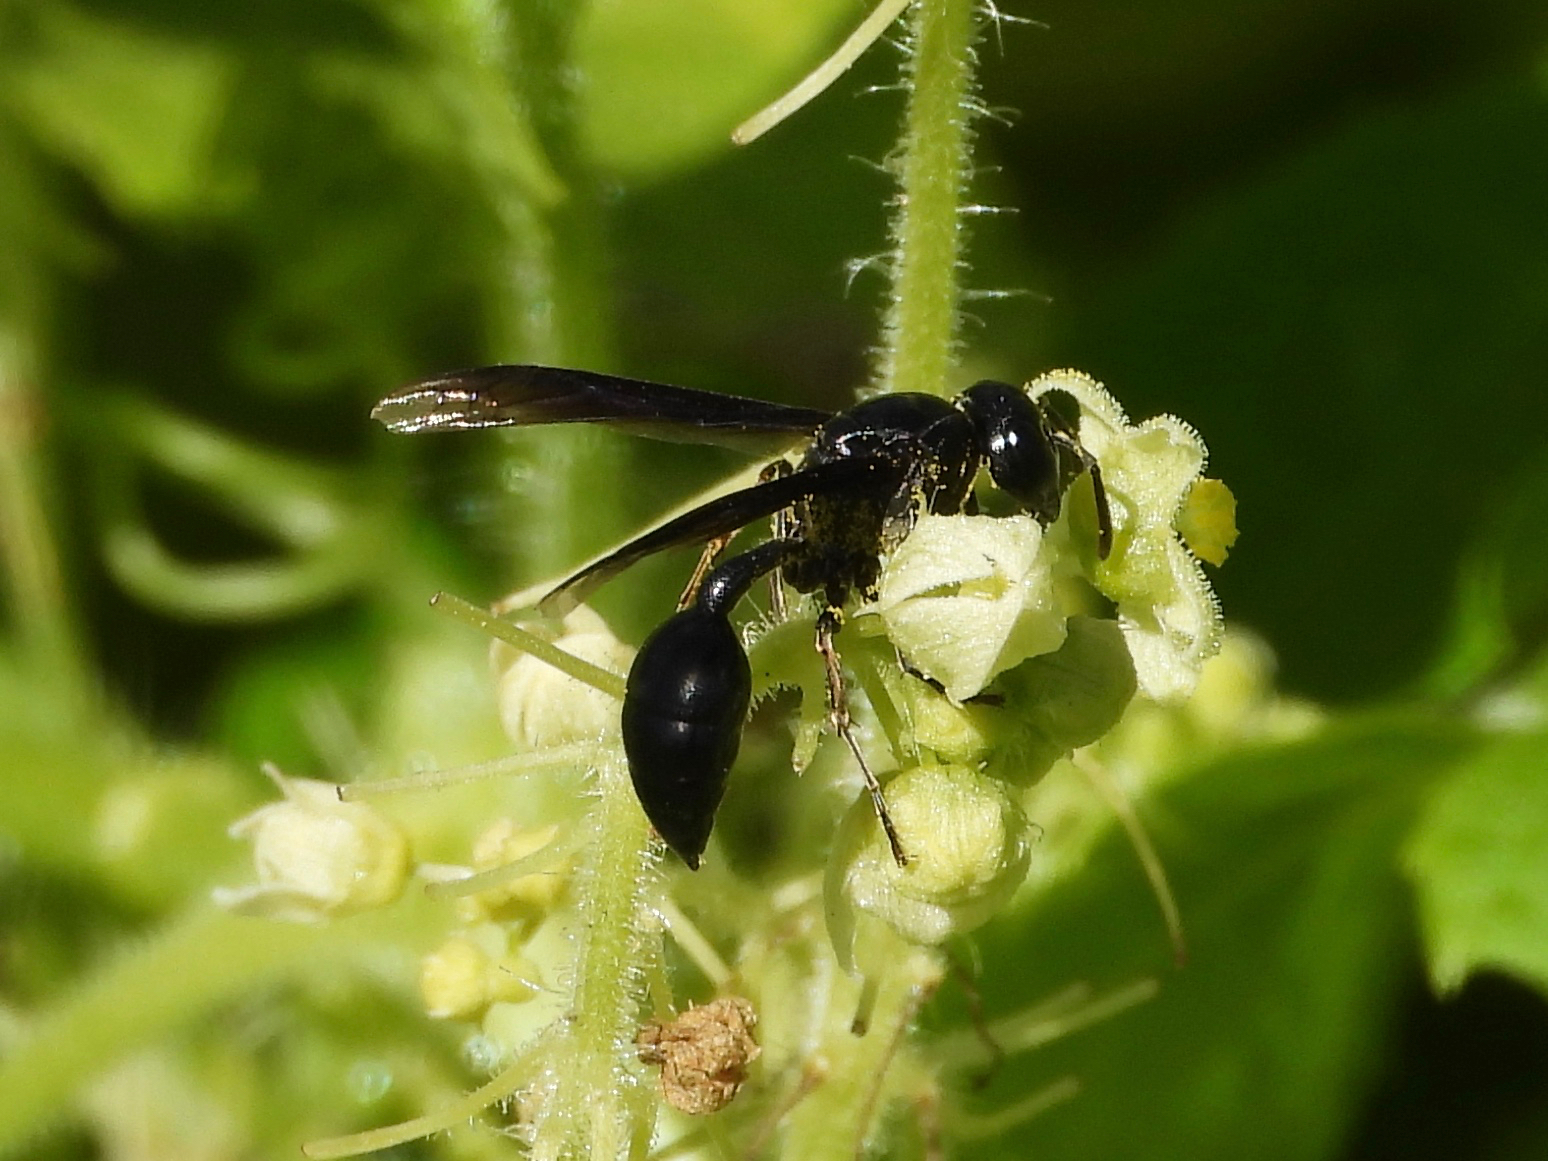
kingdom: Animalia
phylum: Arthropoda
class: Insecta
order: Hymenoptera
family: Vespidae
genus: Epipona
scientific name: Epipona guerini
